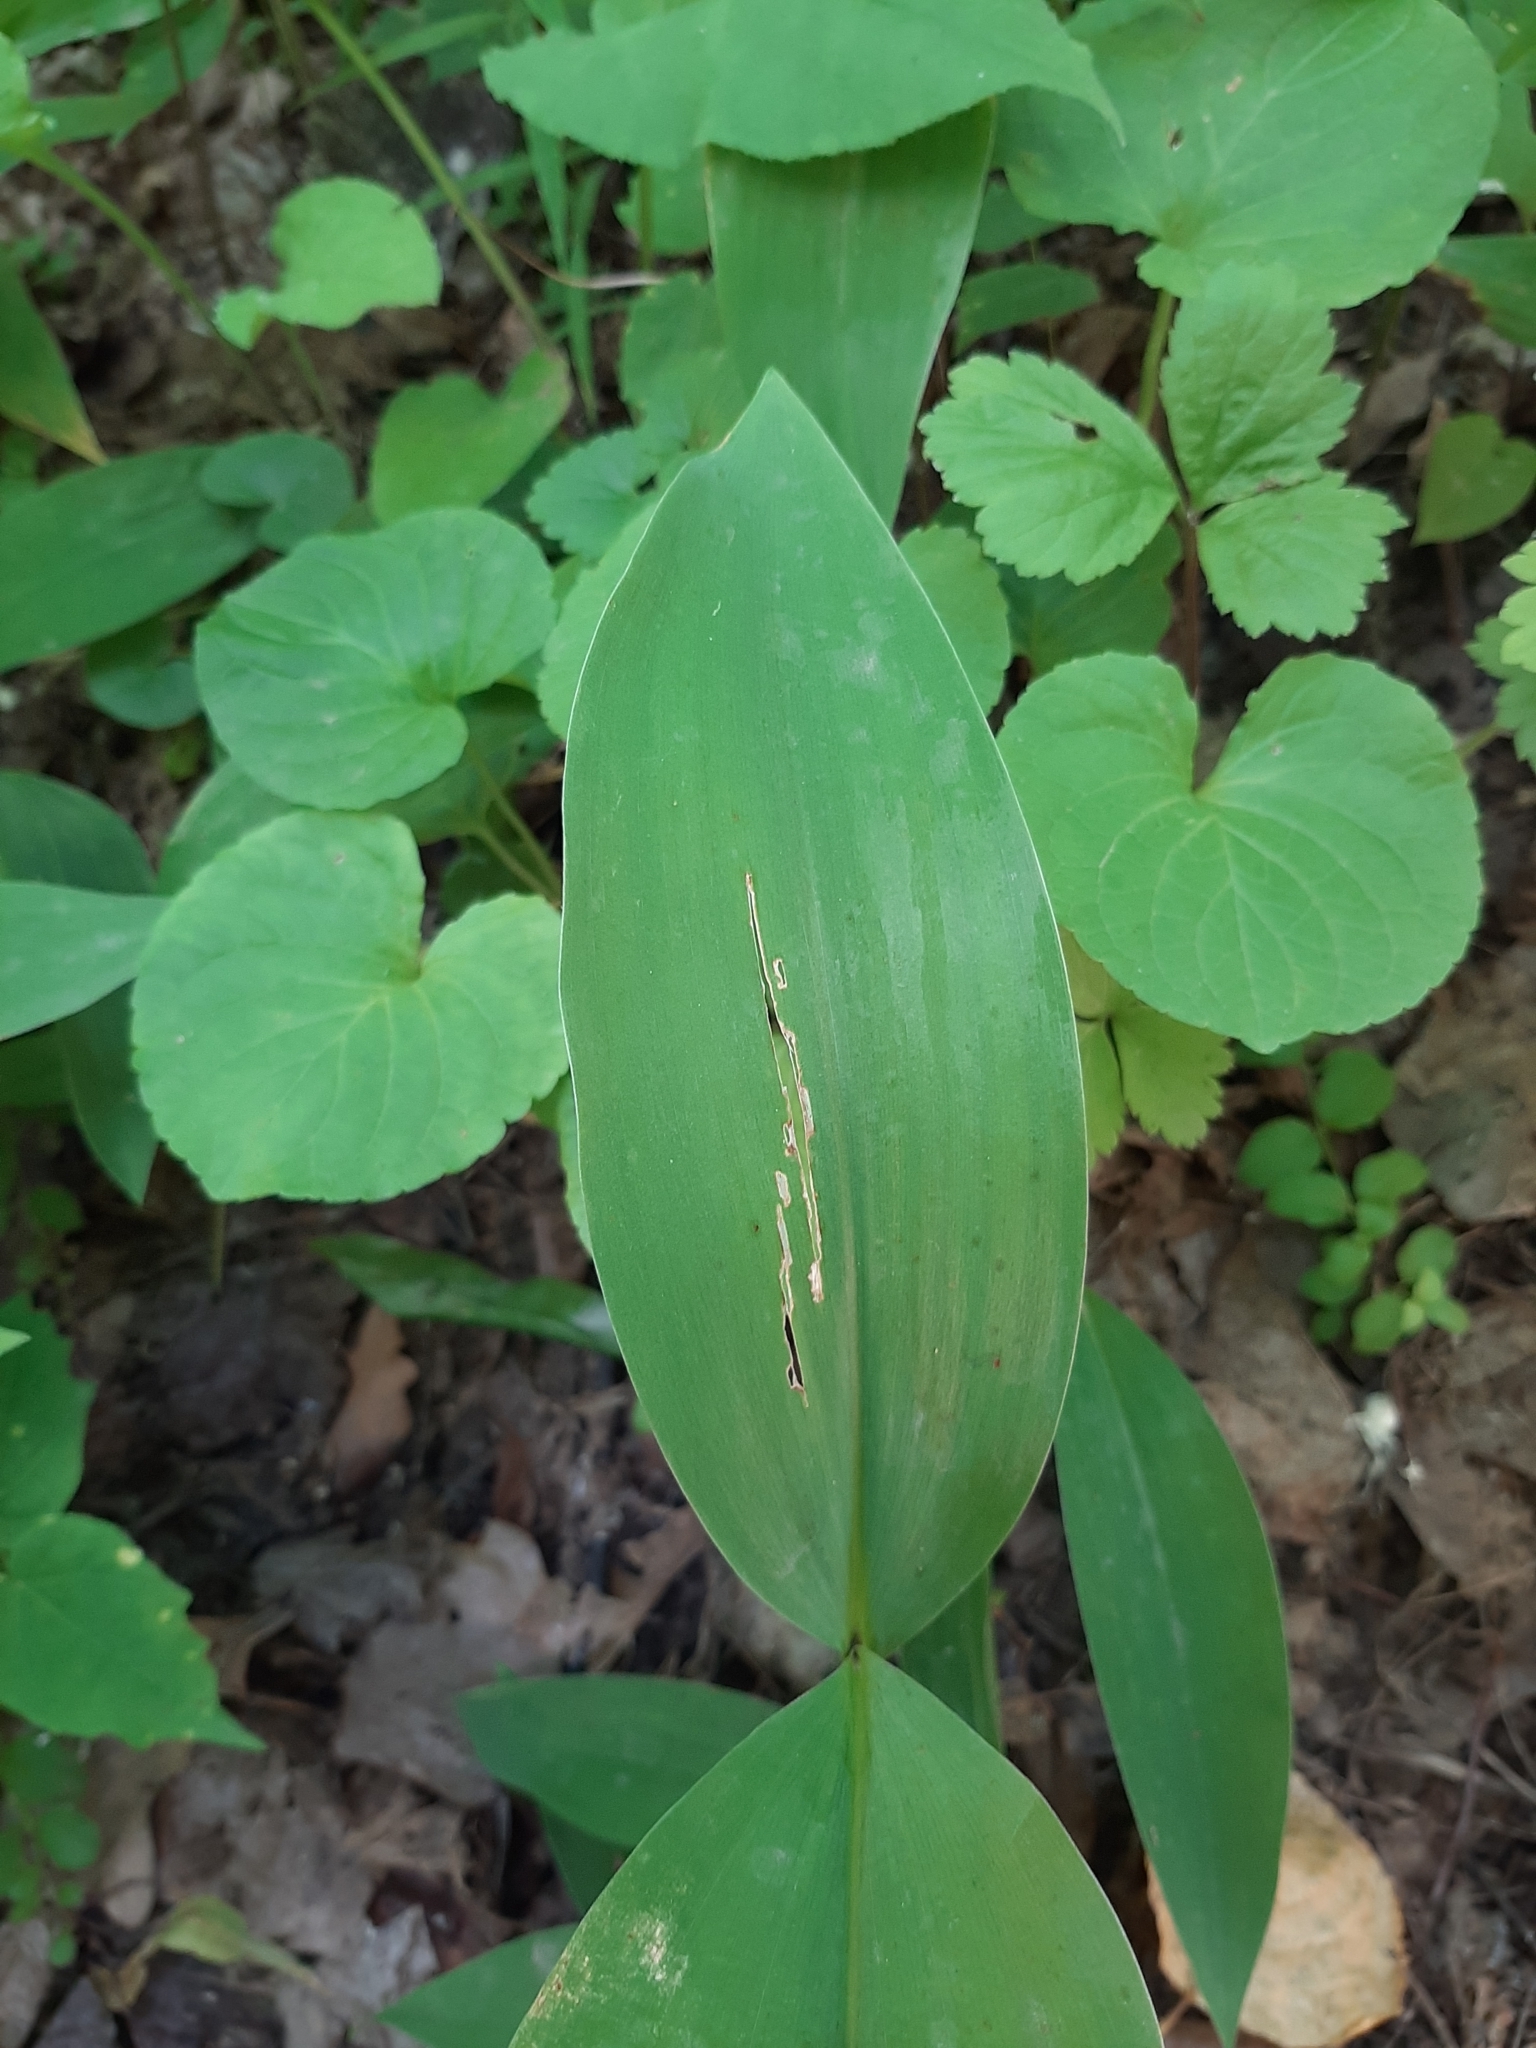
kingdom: Plantae
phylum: Tracheophyta
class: Liliopsida
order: Asparagales
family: Asparagaceae
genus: Convallaria
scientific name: Convallaria majalis
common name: Lily-of-the-valley
